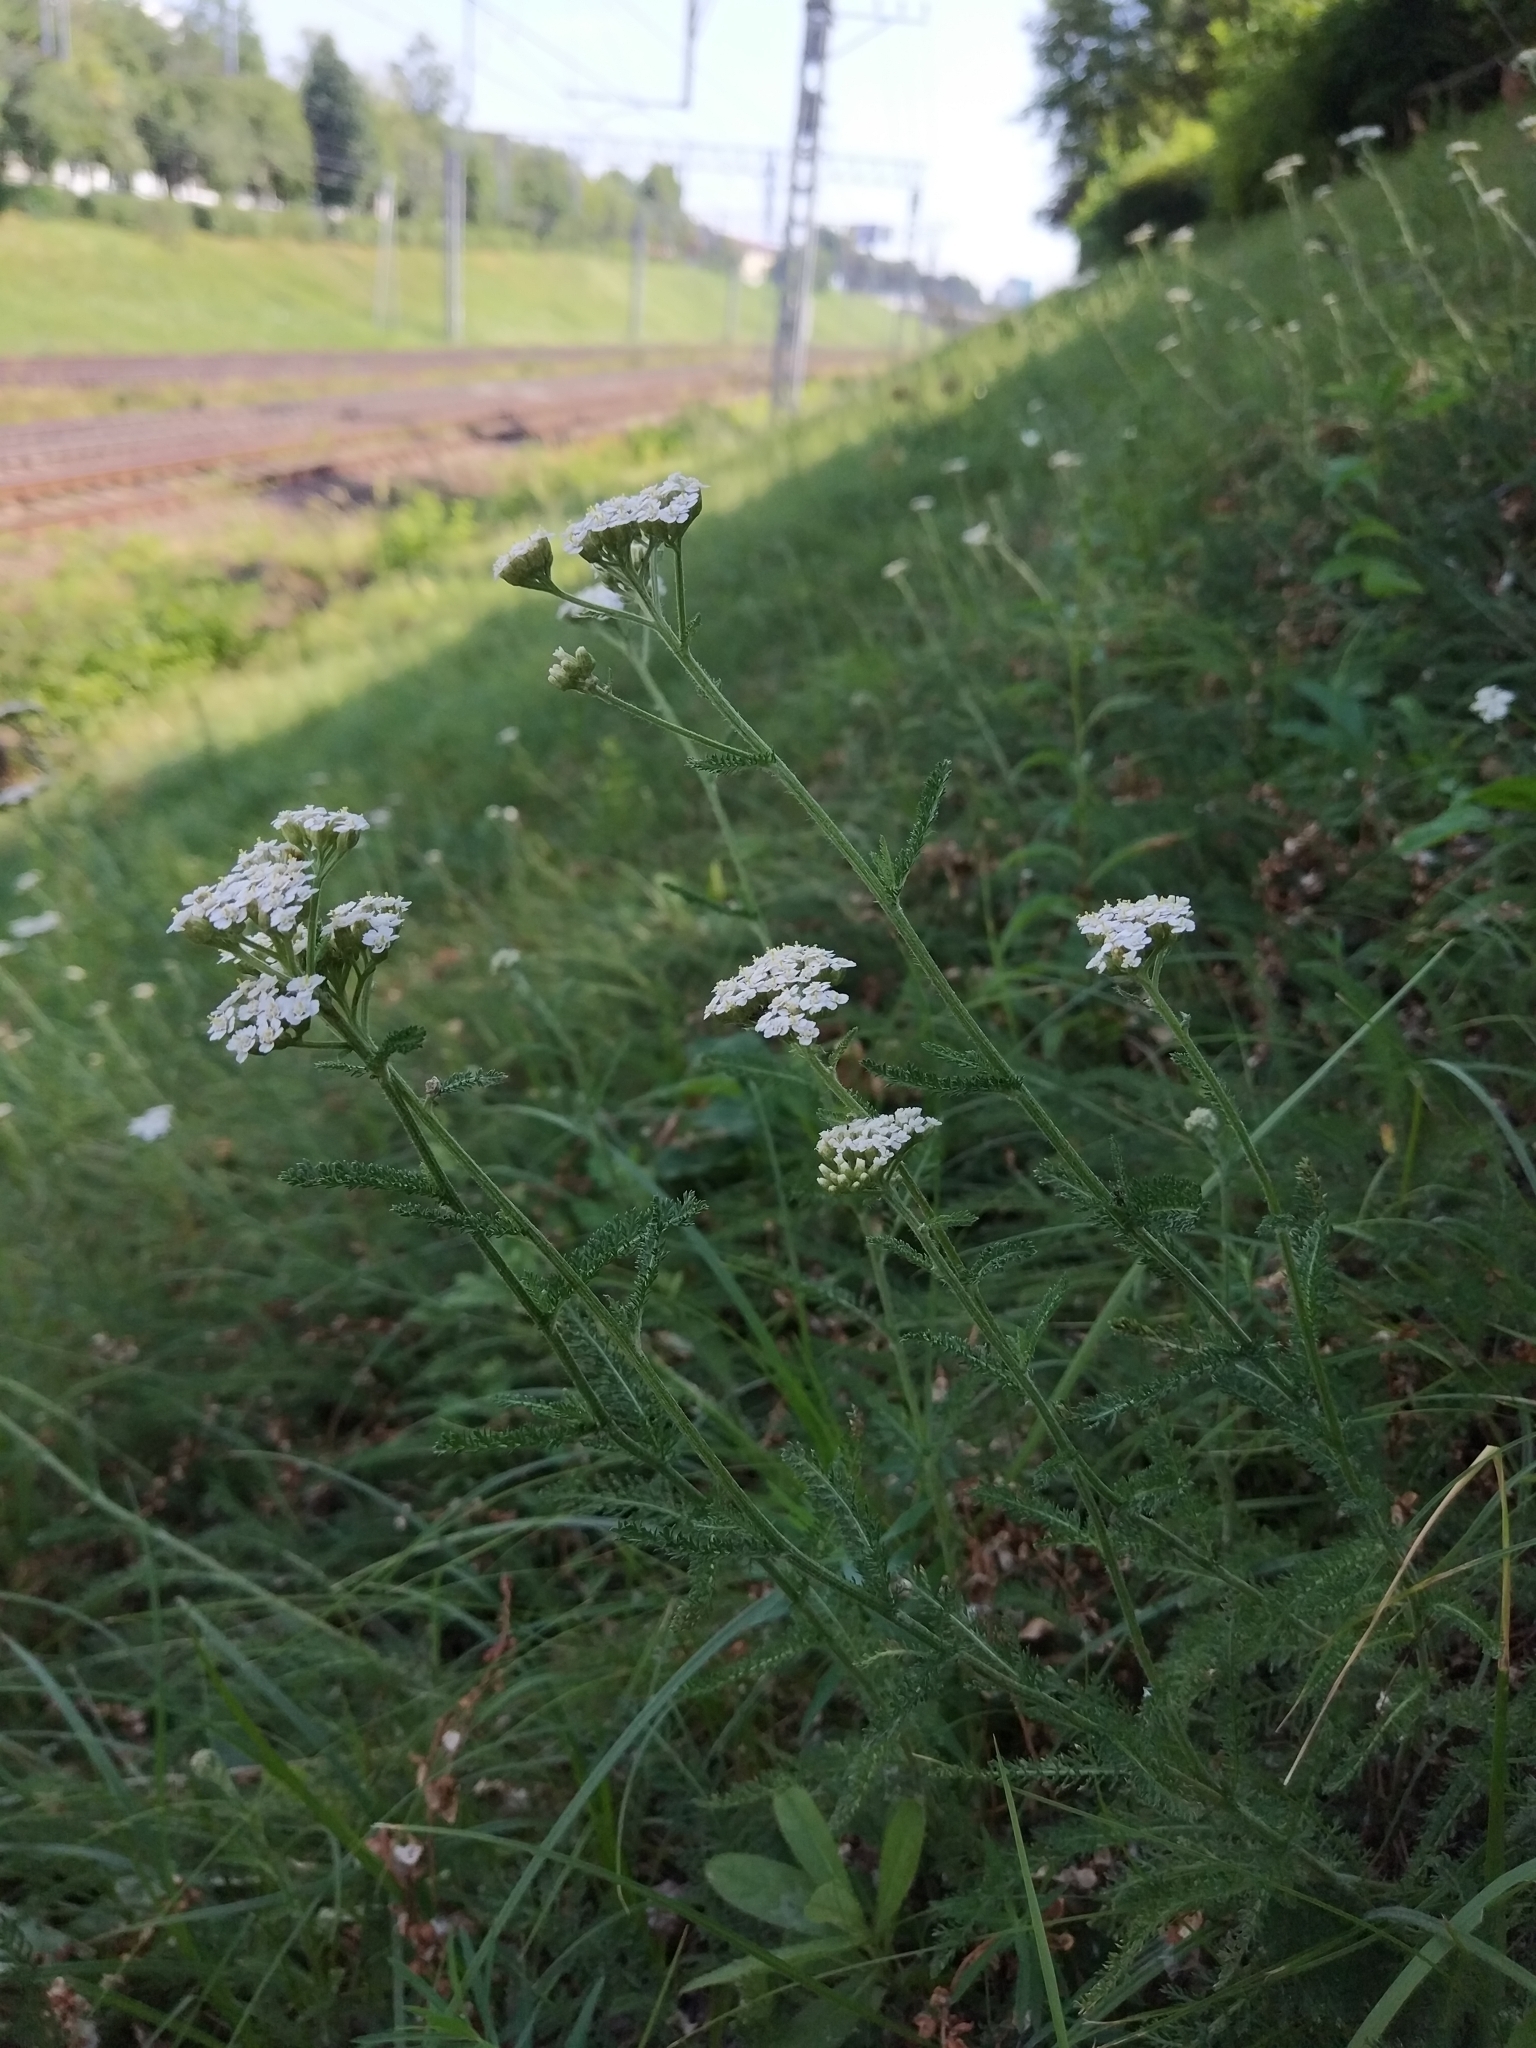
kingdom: Plantae
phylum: Tracheophyta
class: Magnoliopsida
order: Asterales
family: Asteraceae
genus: Achillea
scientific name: Achillea millefolium
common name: Yarrow
